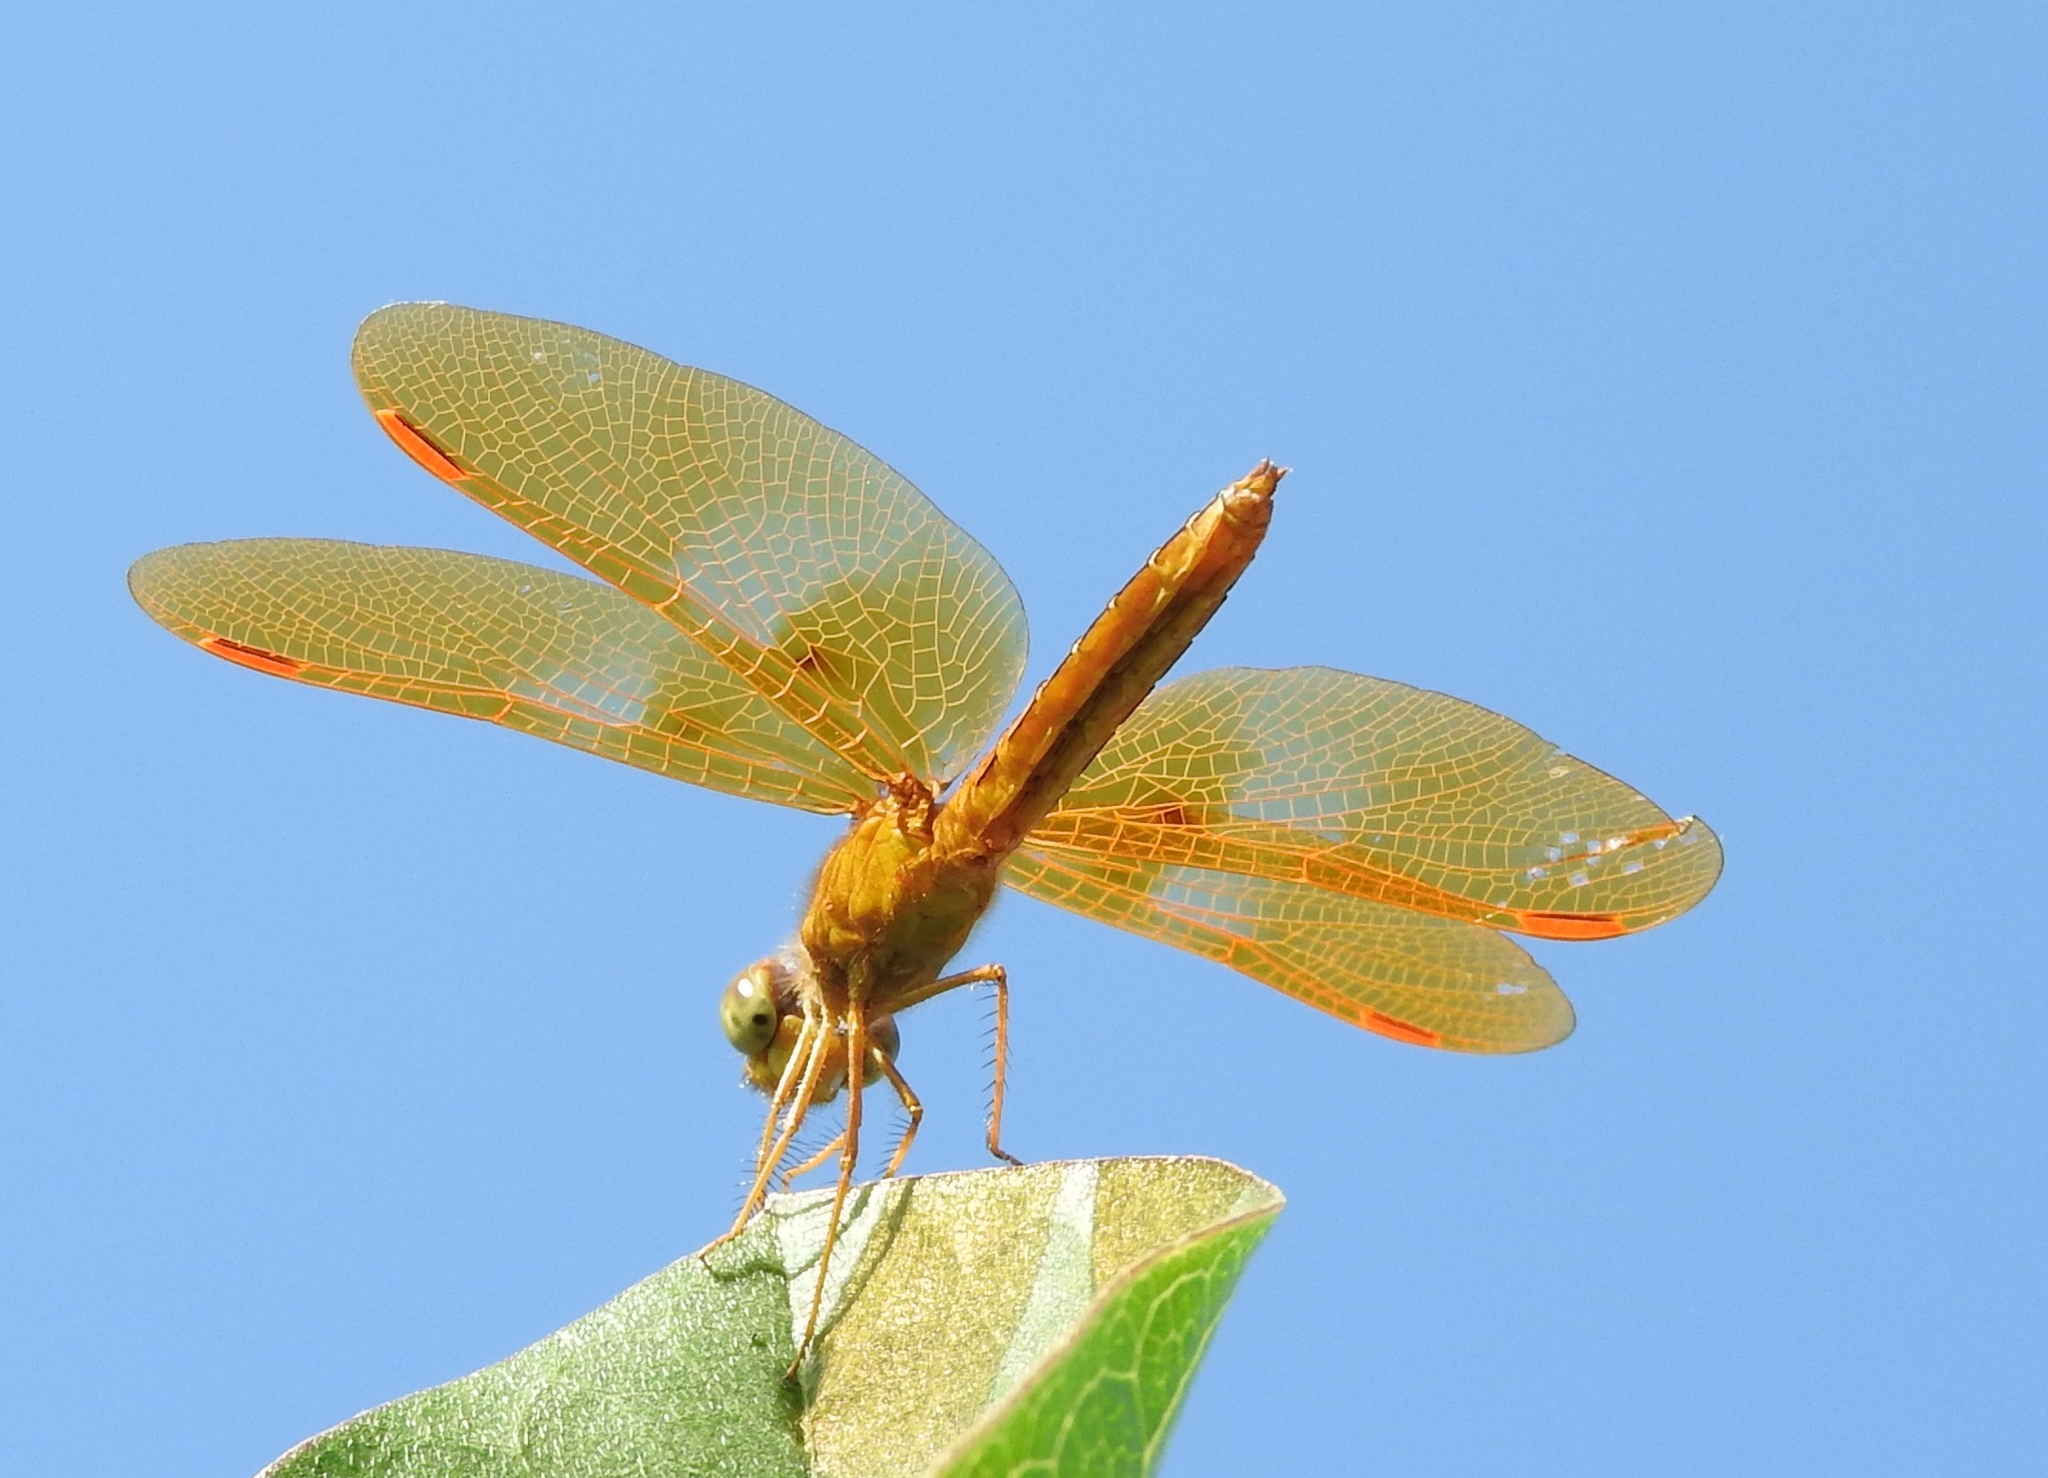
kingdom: Animalia
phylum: Arthropoda
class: Insecta
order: Odonata
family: Libellulidae
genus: Perithemis
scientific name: Perithemis intensa
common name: Mexican amberwing
